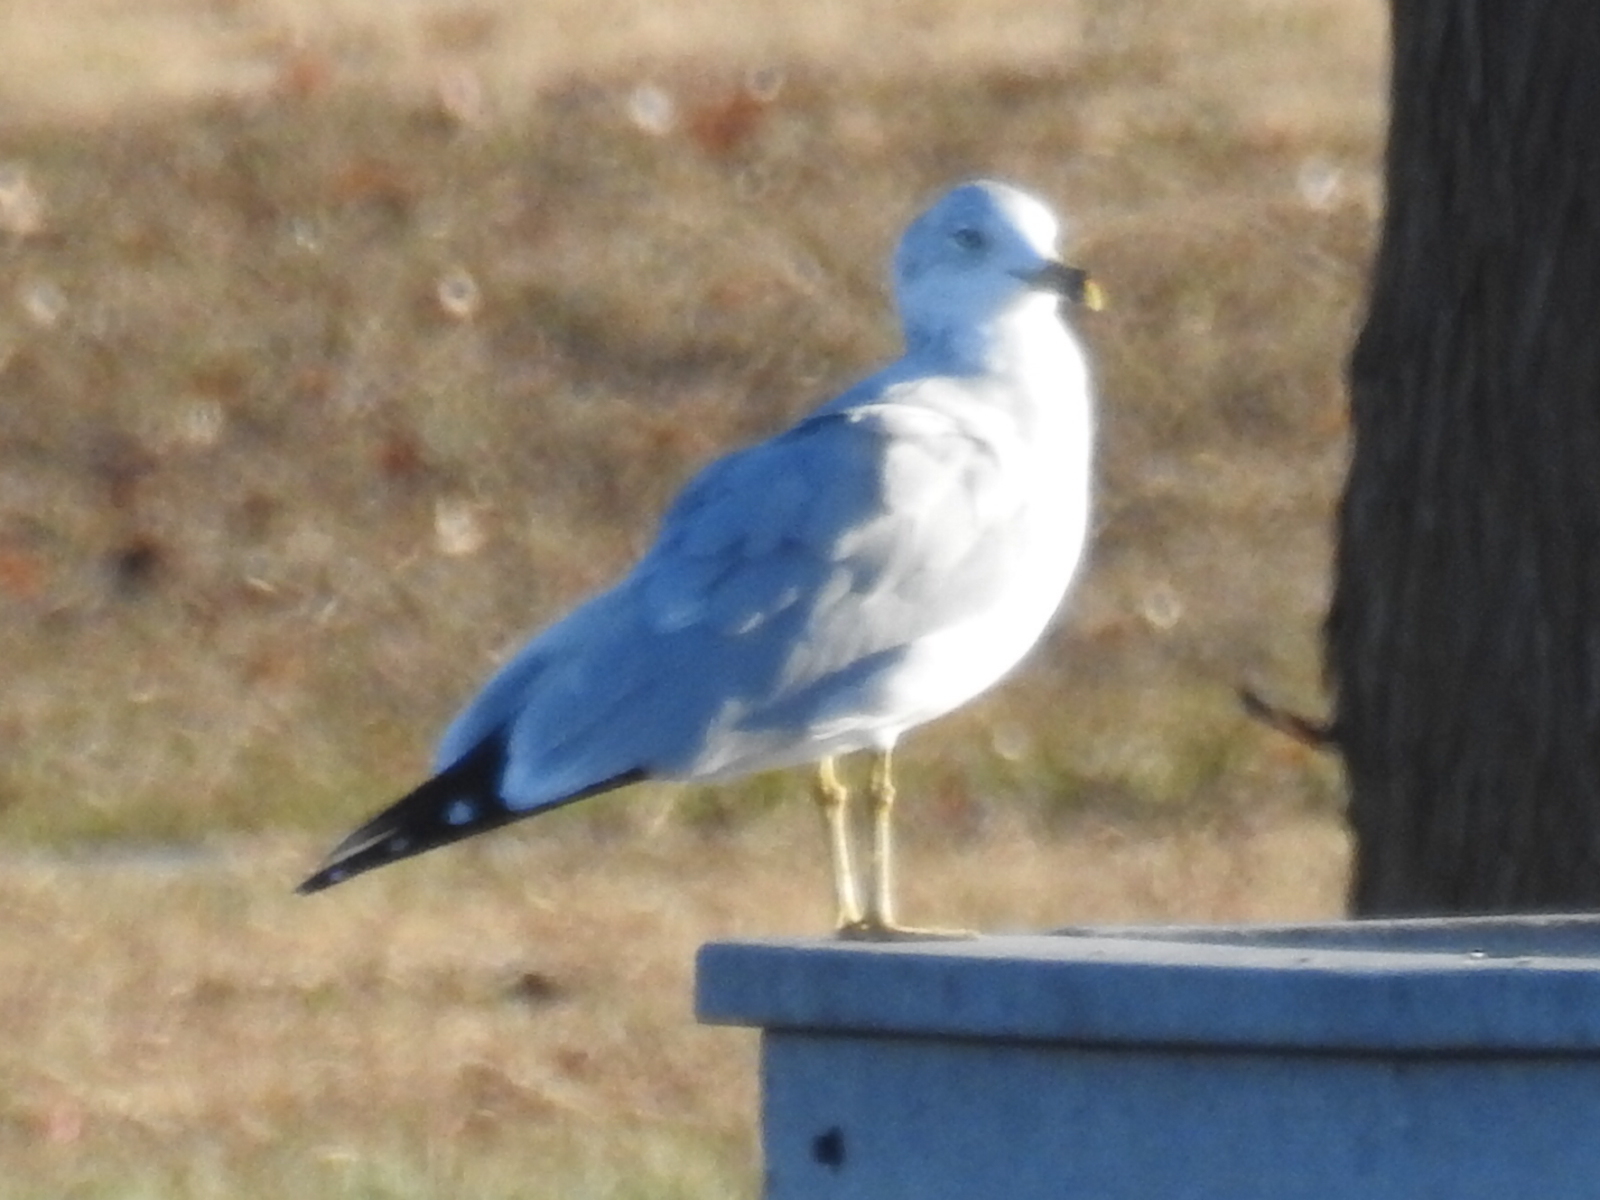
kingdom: Animalia
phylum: Chordata
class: Aves
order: Charadriiformes
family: Laridae
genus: Larus
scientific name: Larus delawarensis
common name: Ring-billed gull
